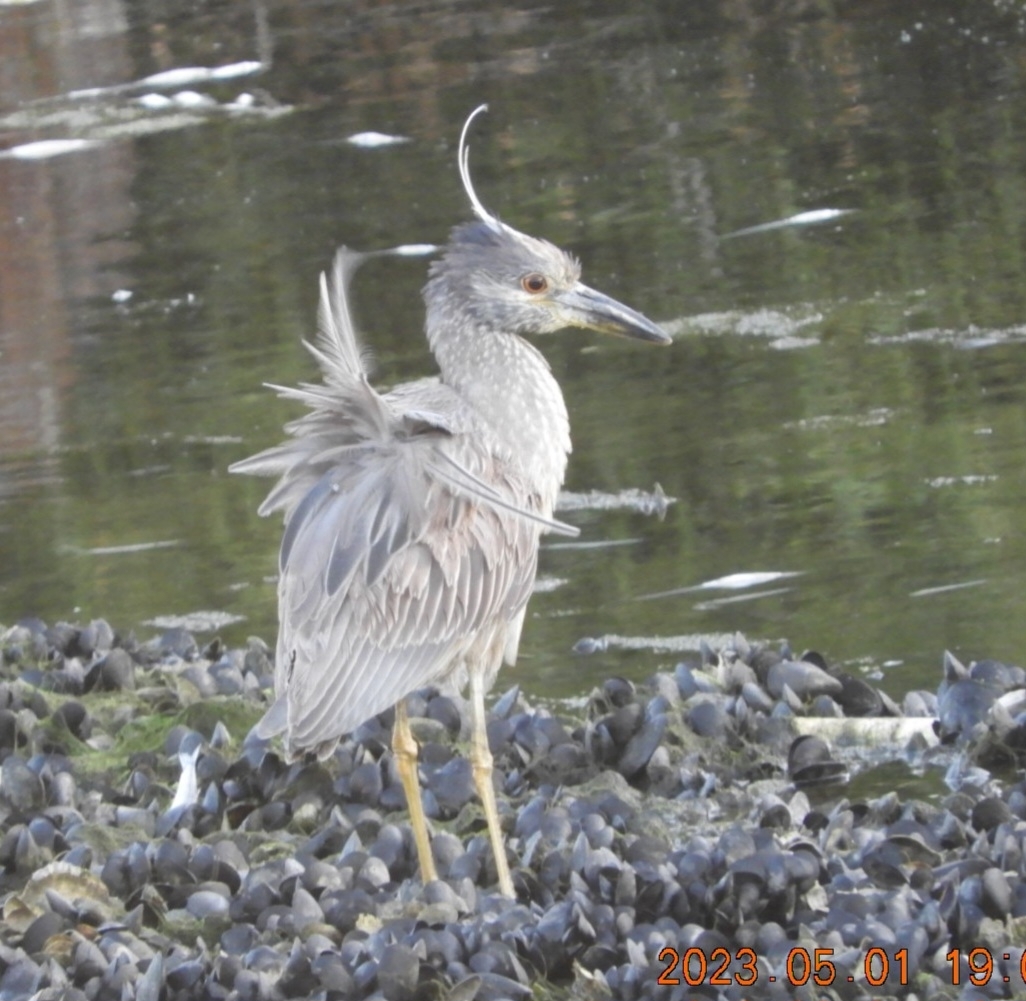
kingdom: Animalia
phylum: Chordata
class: Aves
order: Pelecaniformes
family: Ardeidae
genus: Nyctanassa
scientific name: Nyctanassa violacea
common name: Yellow-crowned night heron
